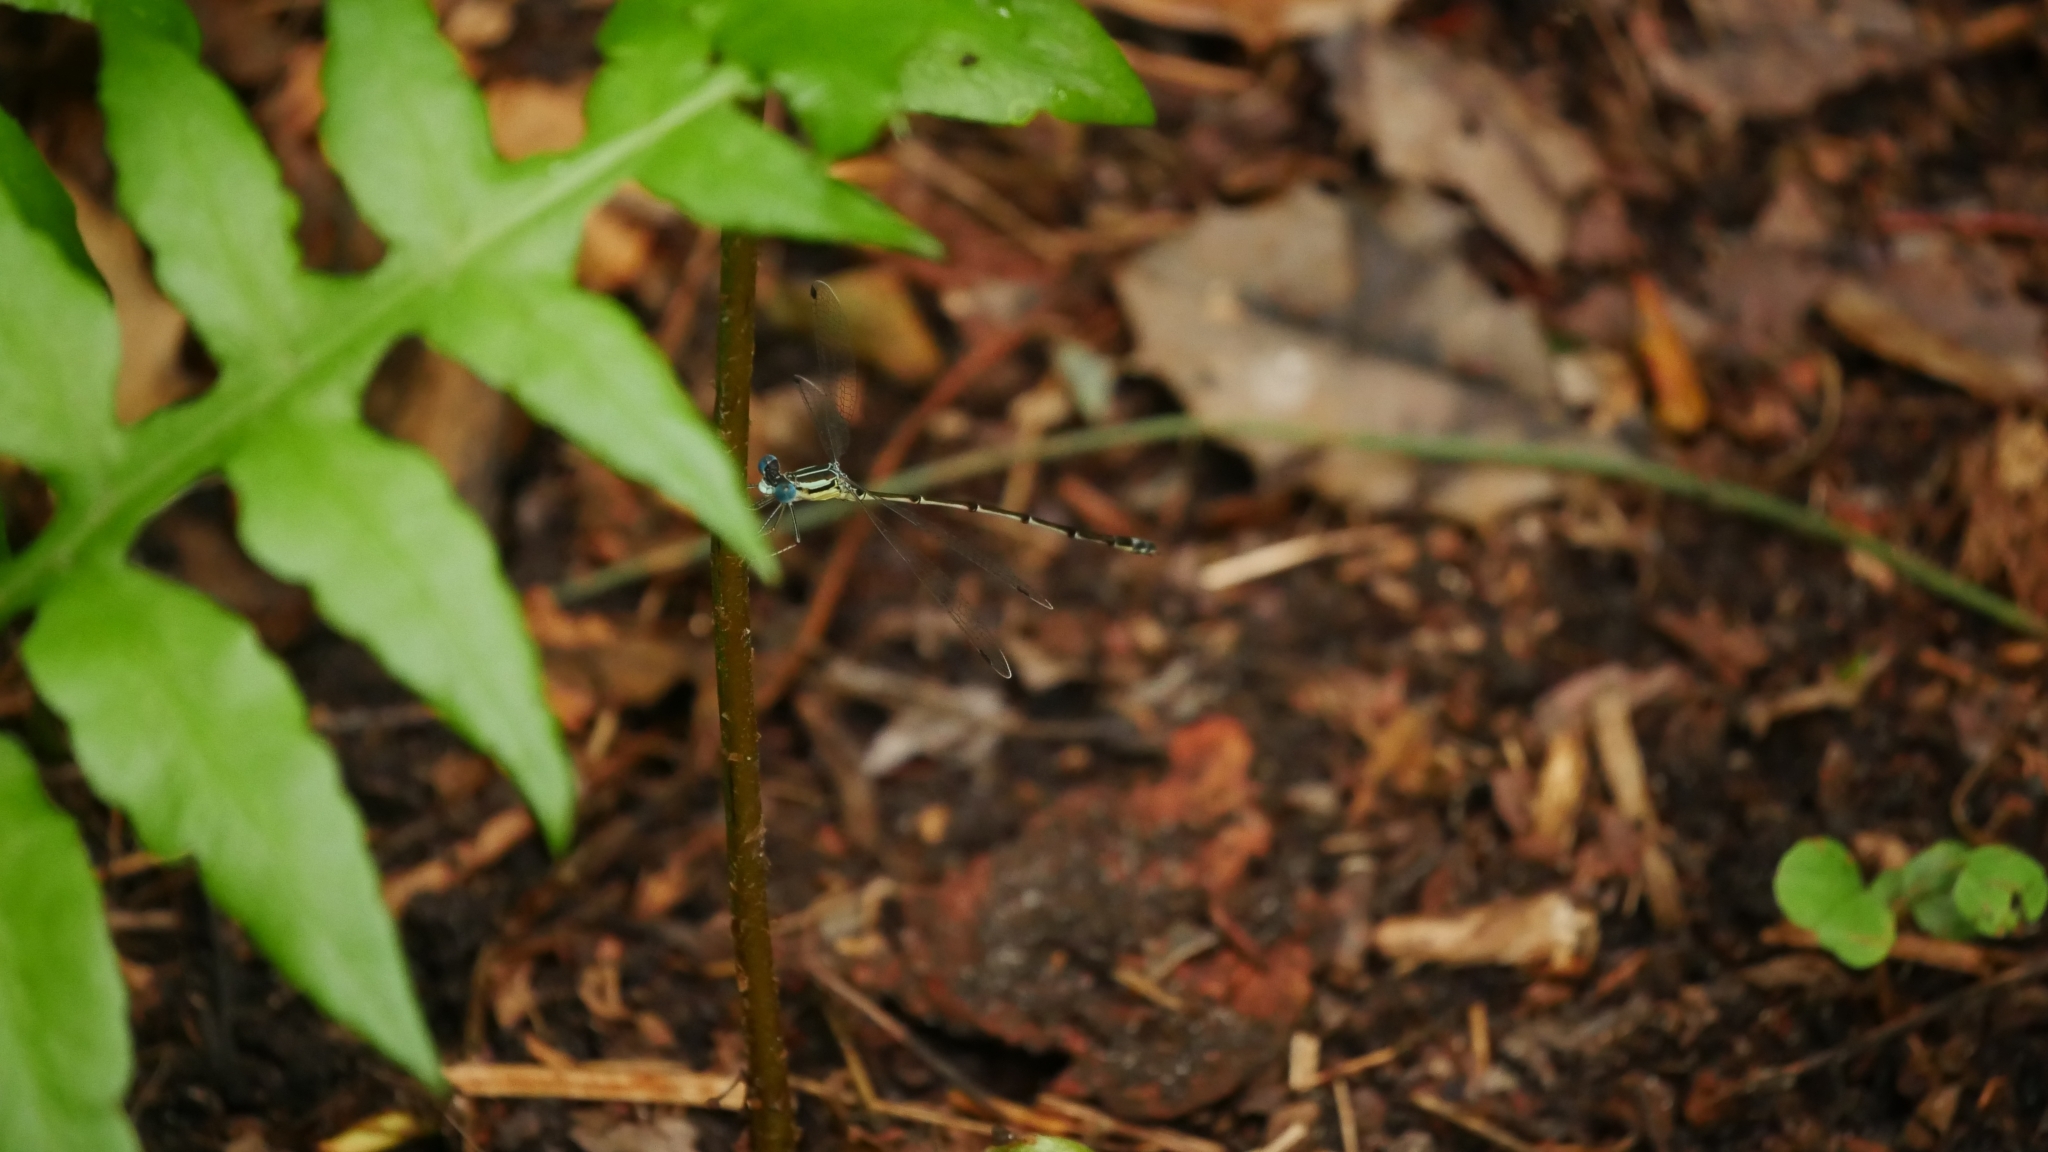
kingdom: Animalia
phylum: Arthropoda
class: Insecta
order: Odonata
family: Lestidae
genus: Lestes
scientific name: Lestes rectangularis
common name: Slender spreadwing
